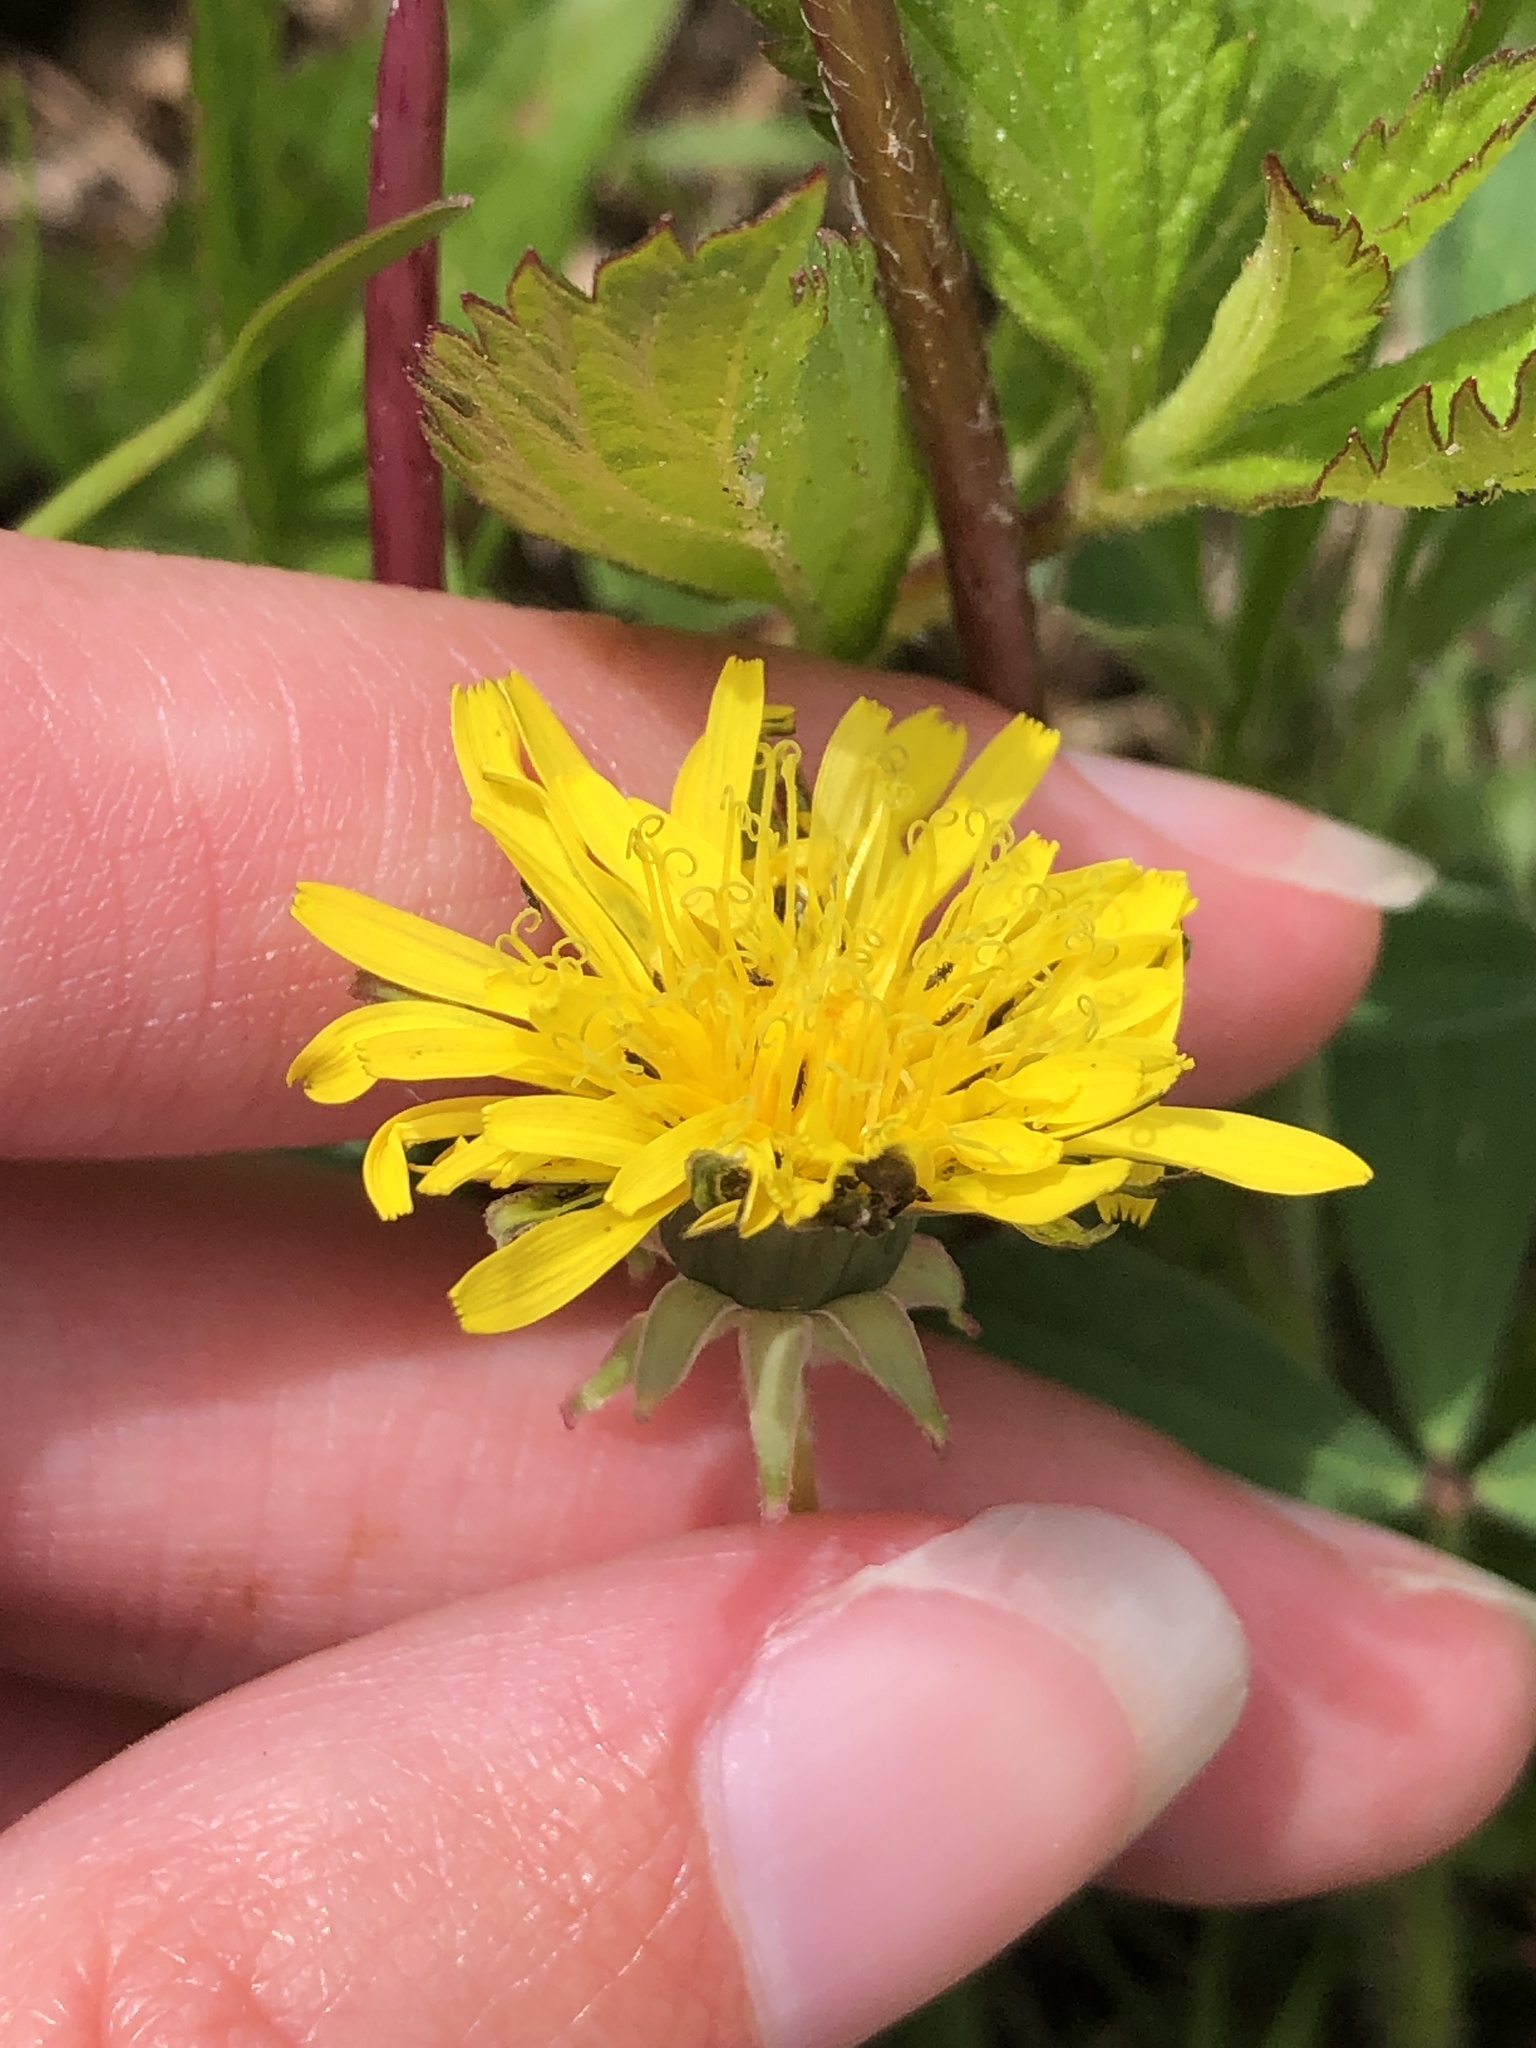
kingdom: Plantae
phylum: Tracheophyta
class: Magnoliopsida
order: Asterales
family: Asteraceae
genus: Taraxacum
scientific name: Taraxacum officinale
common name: Common dandelion
